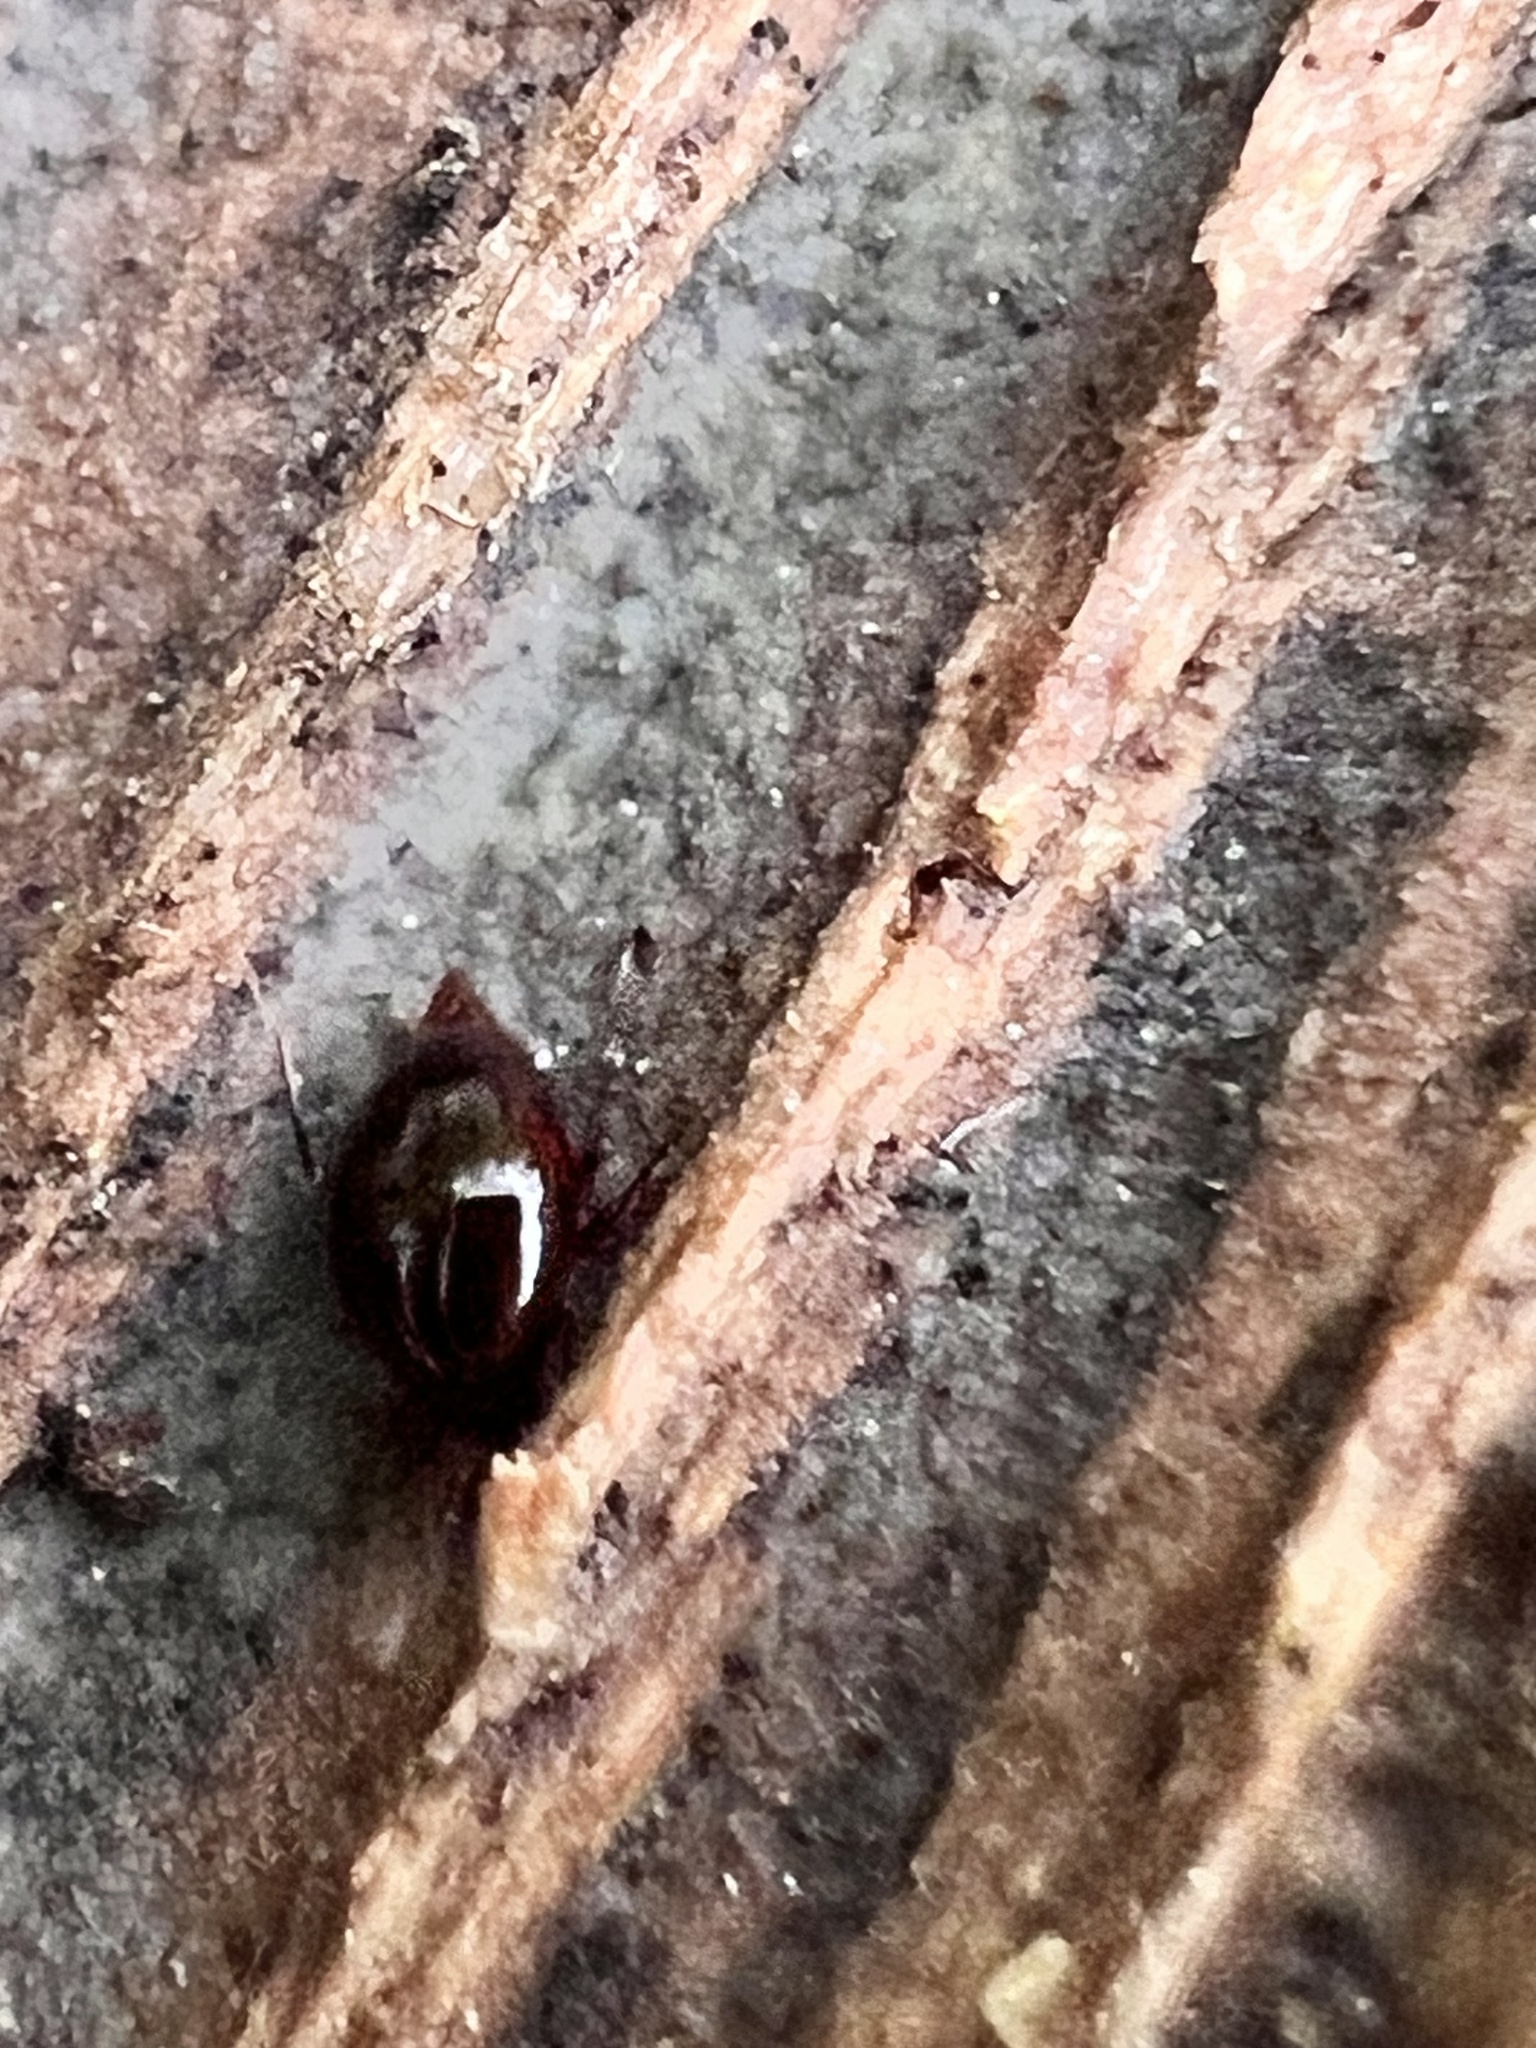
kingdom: Animalia
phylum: Arthropoda
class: Insecta
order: Coleoptera
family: Staphylinidae
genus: Brachynopus
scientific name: Brachynopus scutellaris
